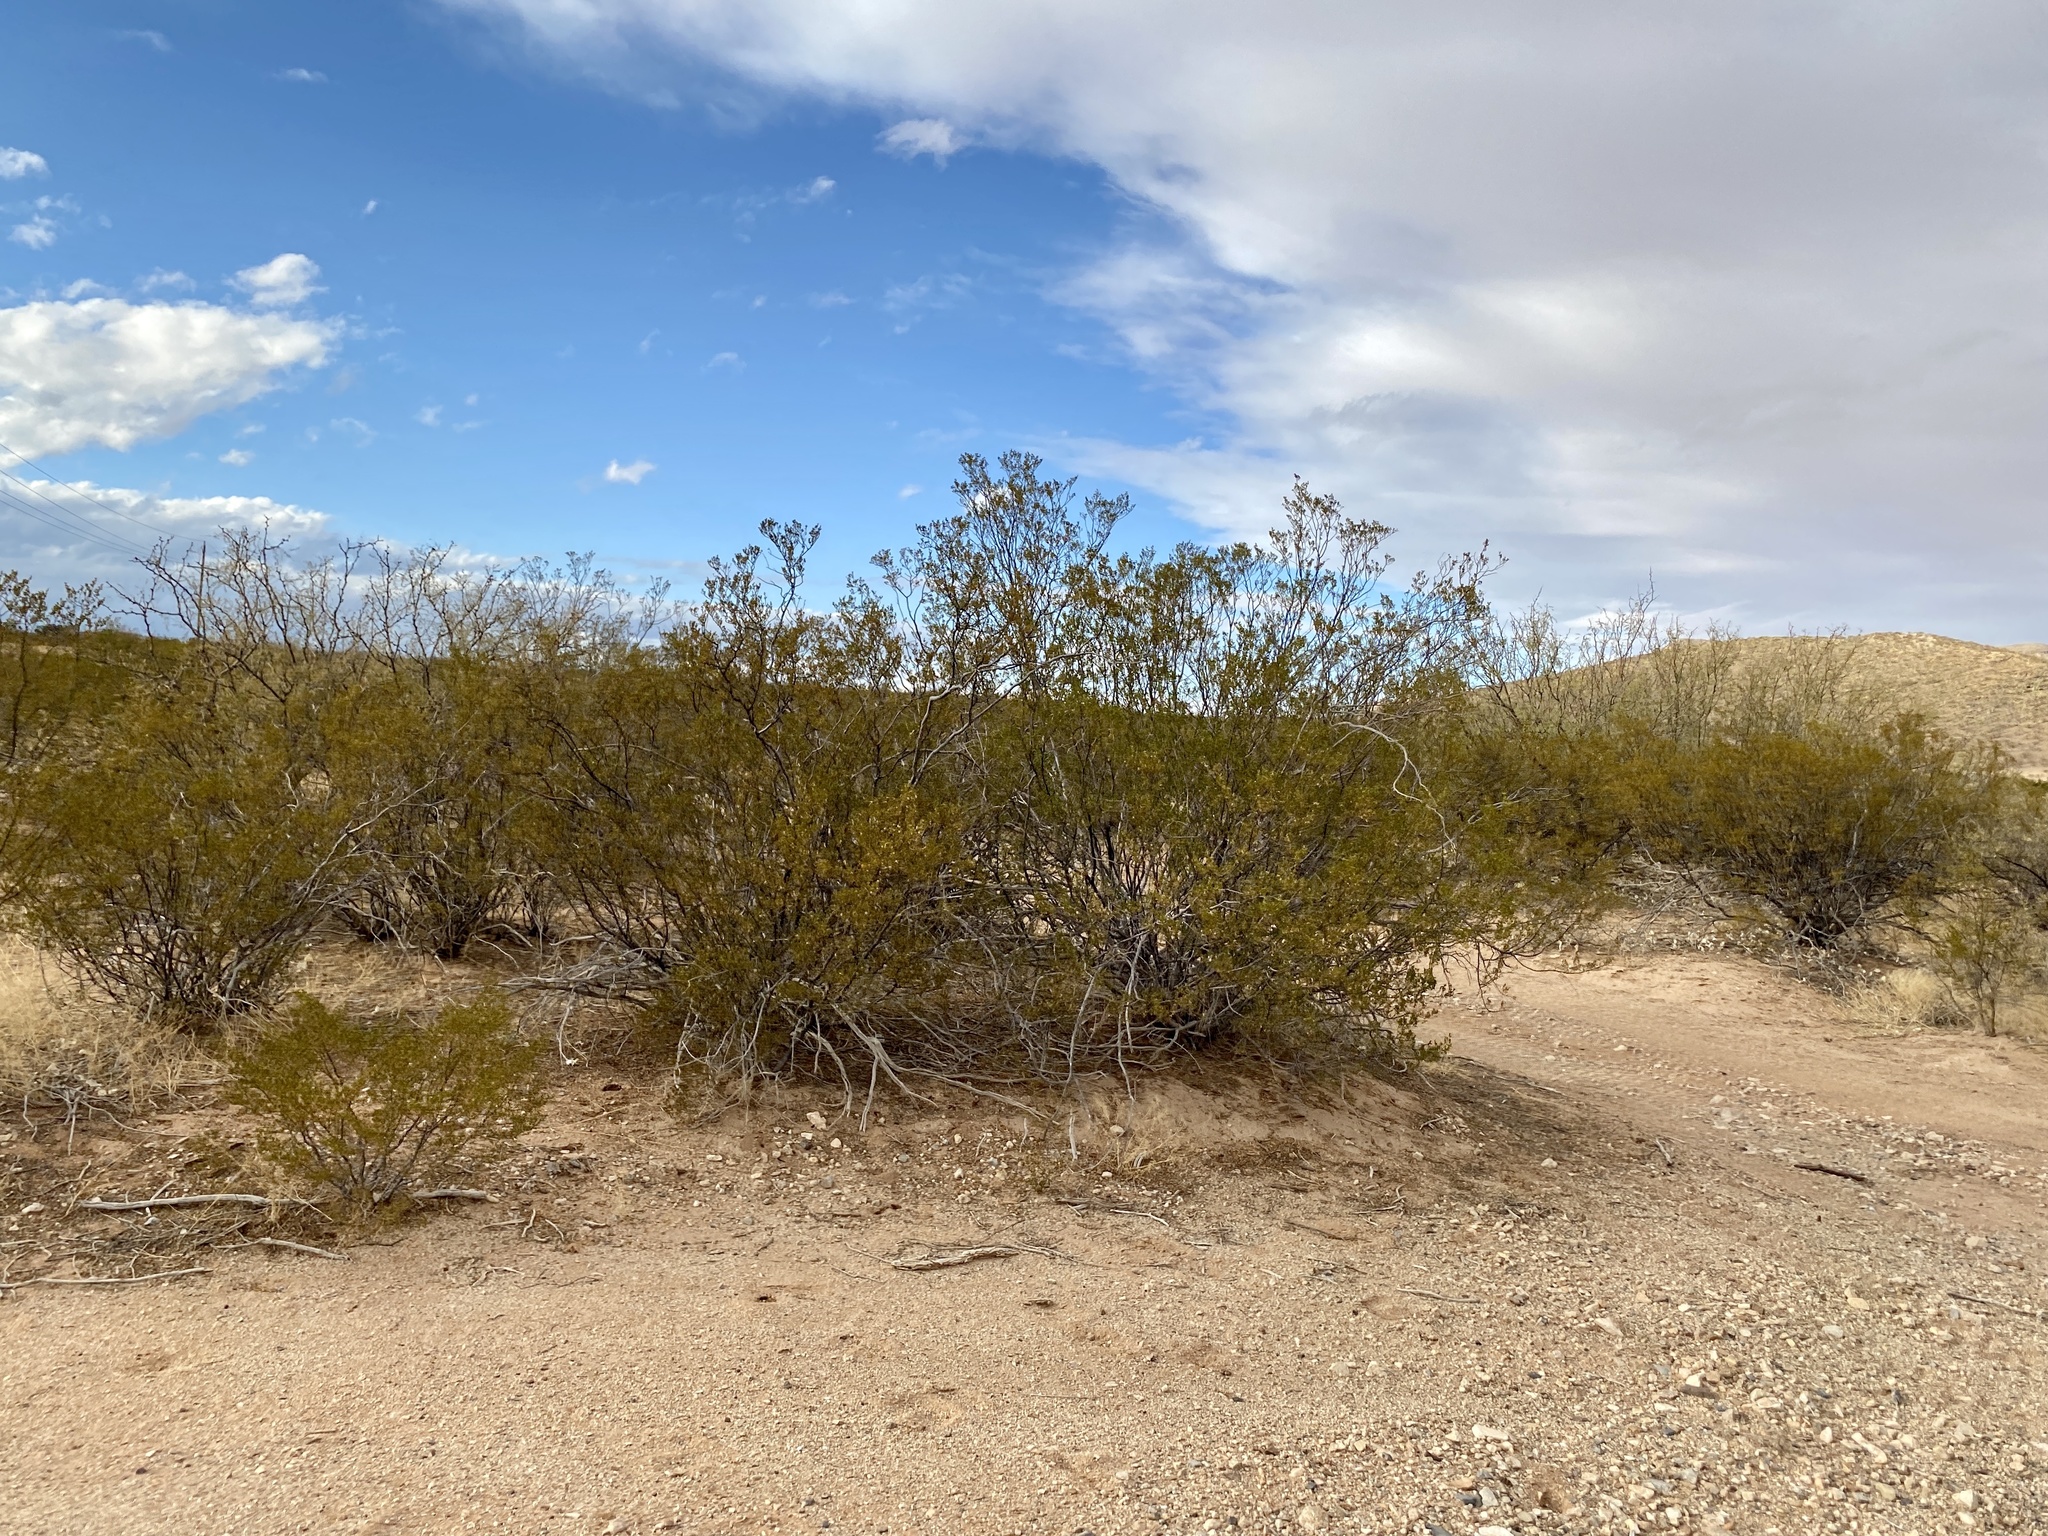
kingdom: Plantae
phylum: Tracheophyta
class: Magnoliopsida
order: Zygophyllales
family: Zygophyllaceae
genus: Larrea
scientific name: Larrea tridentata
